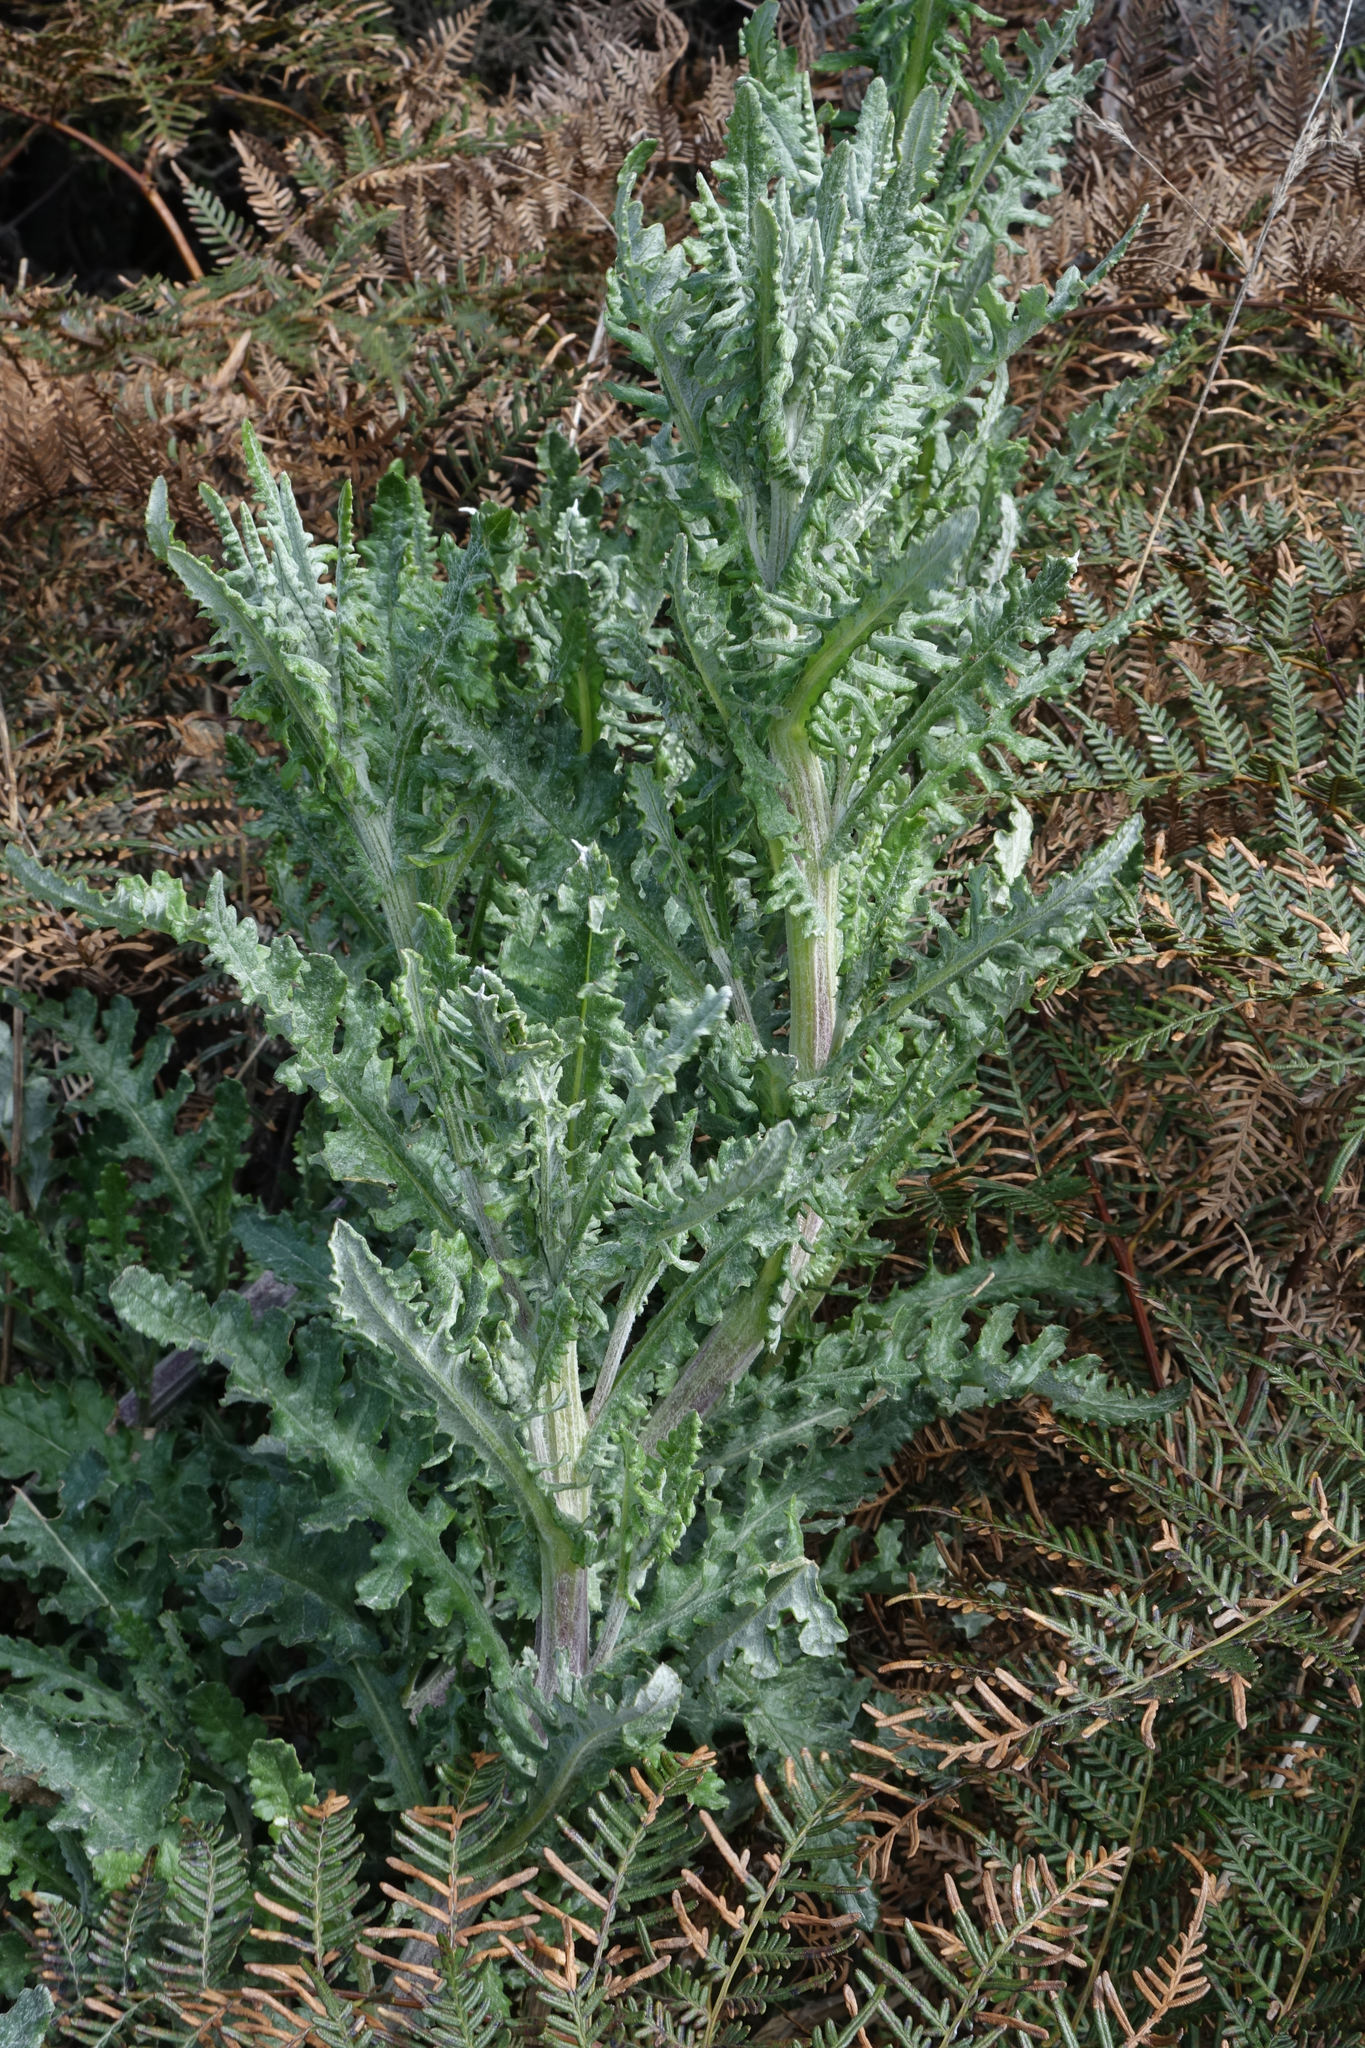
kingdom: Plantae
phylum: Tracheophyta
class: Magnoliopsida
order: Asterales
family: Asteraceae
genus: Senecio
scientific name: Senecio glomeratus
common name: Cutleaf burnweed
